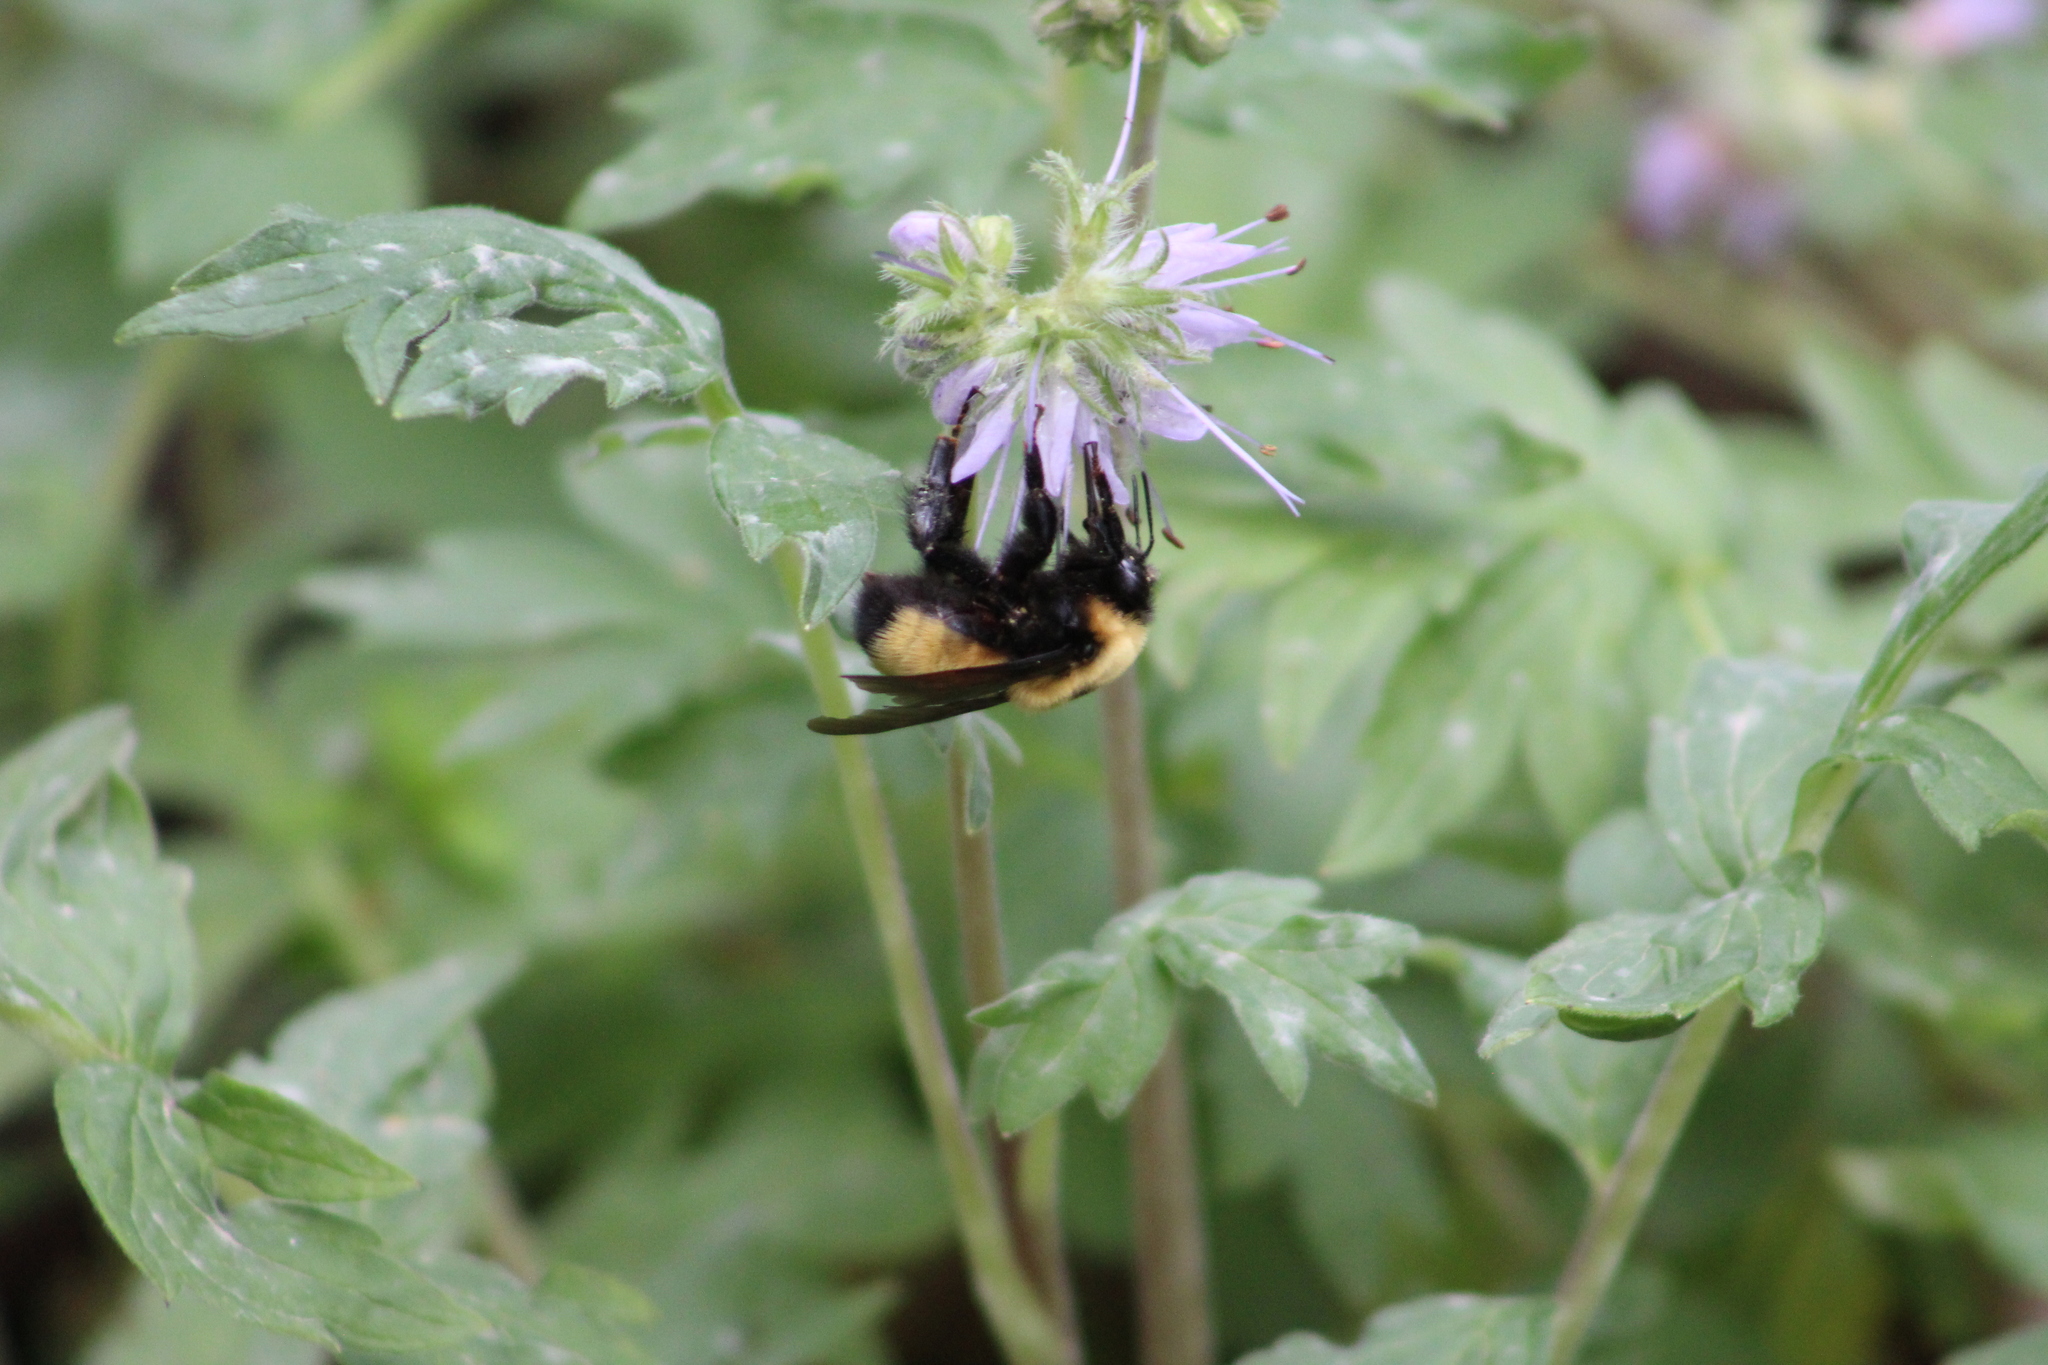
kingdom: Animalia
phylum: Arthropoda
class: Insecta
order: Hymenoptera
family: Apidae
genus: Bombus
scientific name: Bombus nevadensis
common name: Nevada bumble bee
